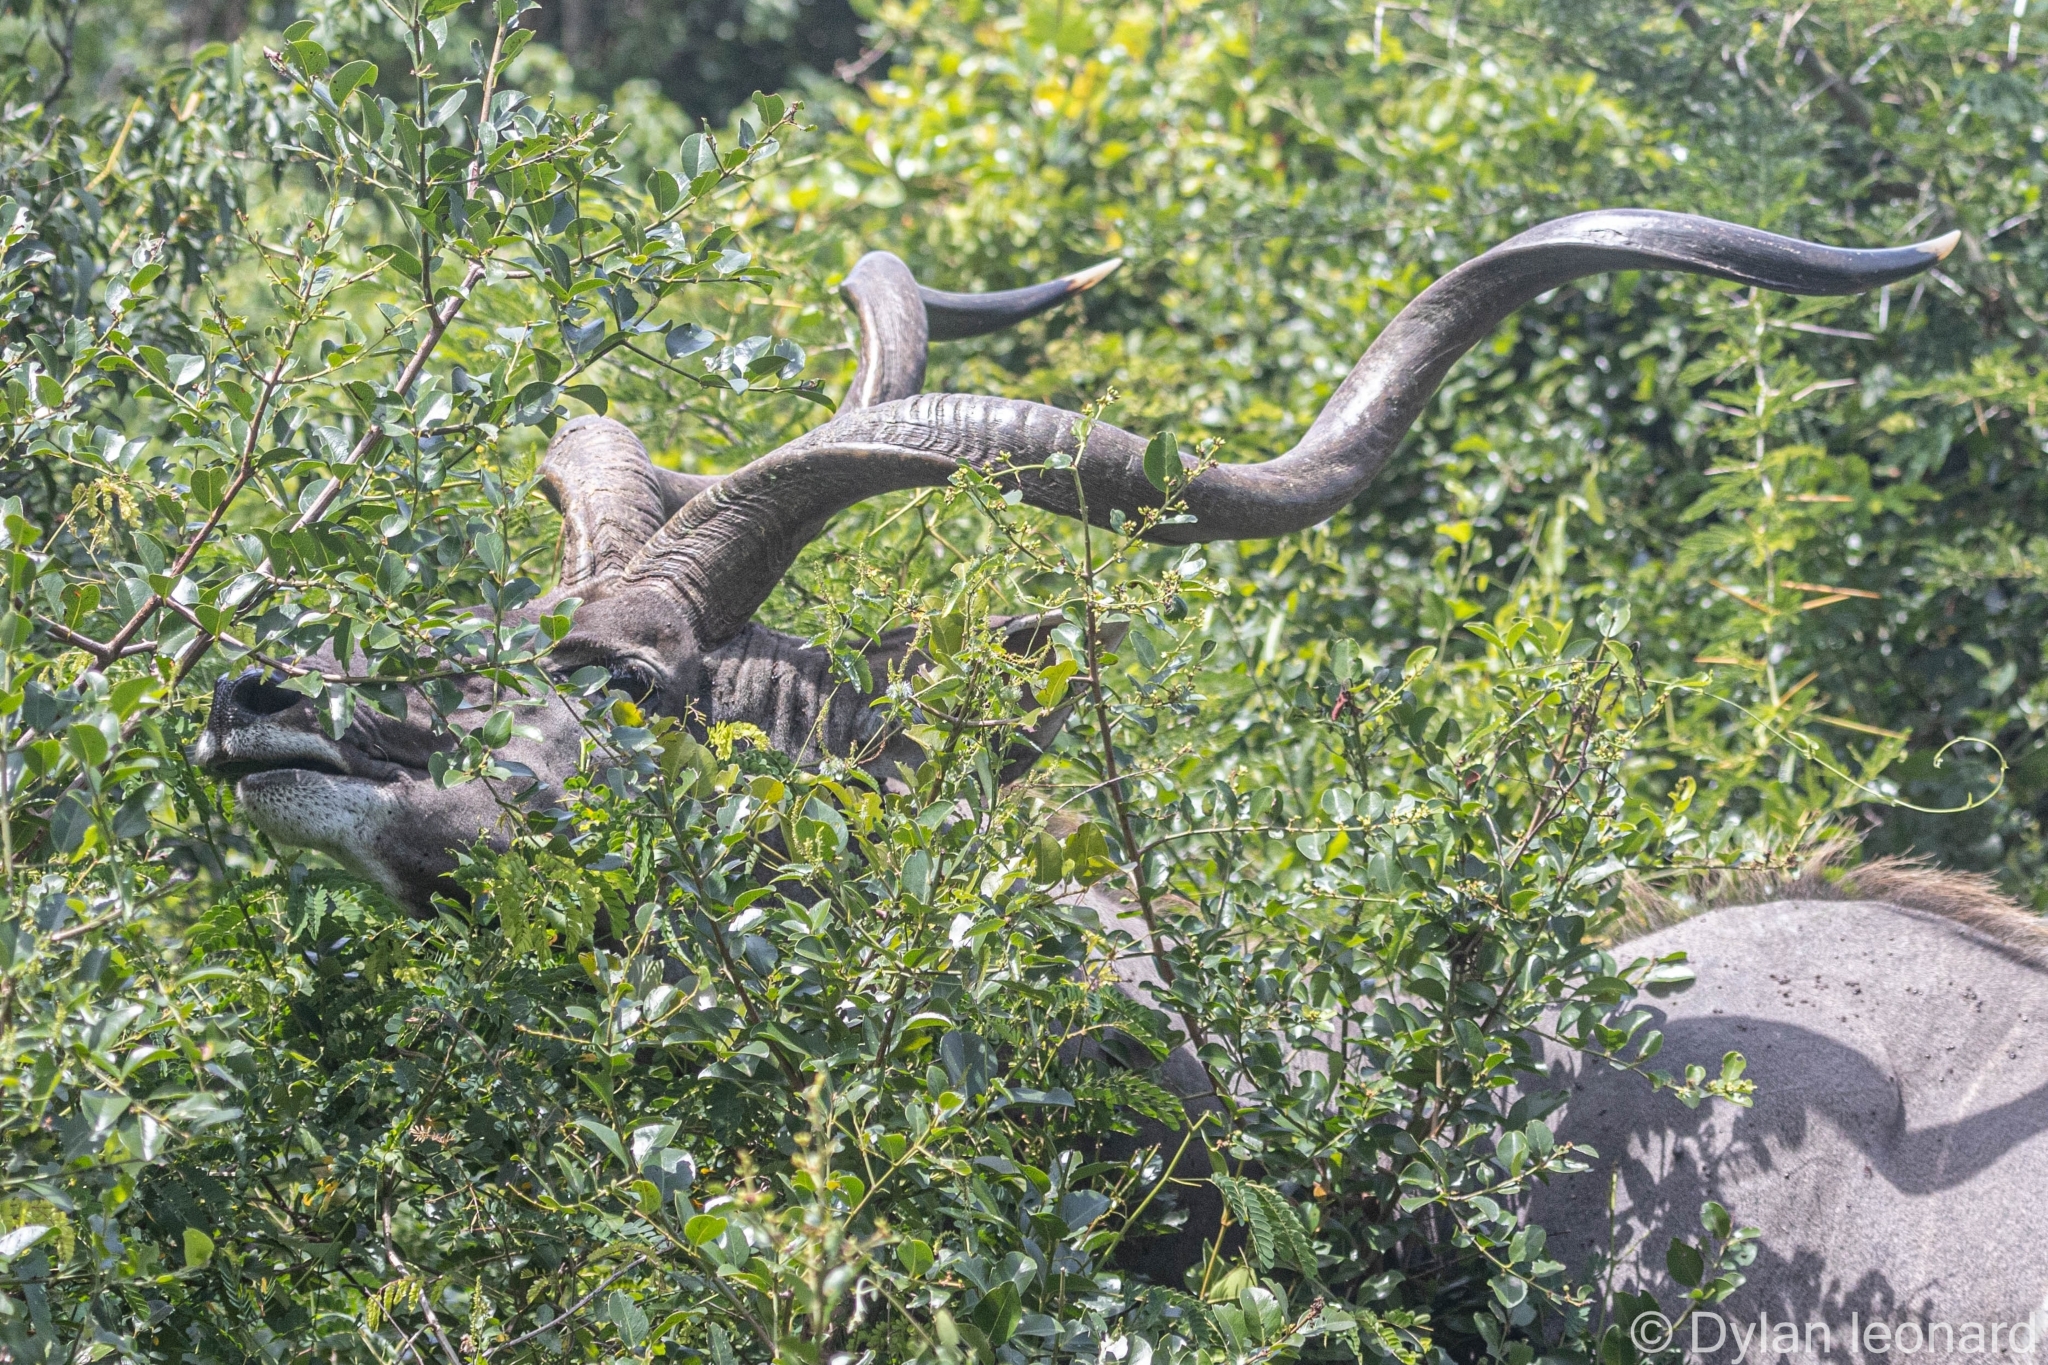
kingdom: Animalia
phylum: Chordata
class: Mammalia
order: Artiodactyla
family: Bovidae
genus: Tragelaphus
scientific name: Tragelaphus strepsiceros
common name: Greater kudu
